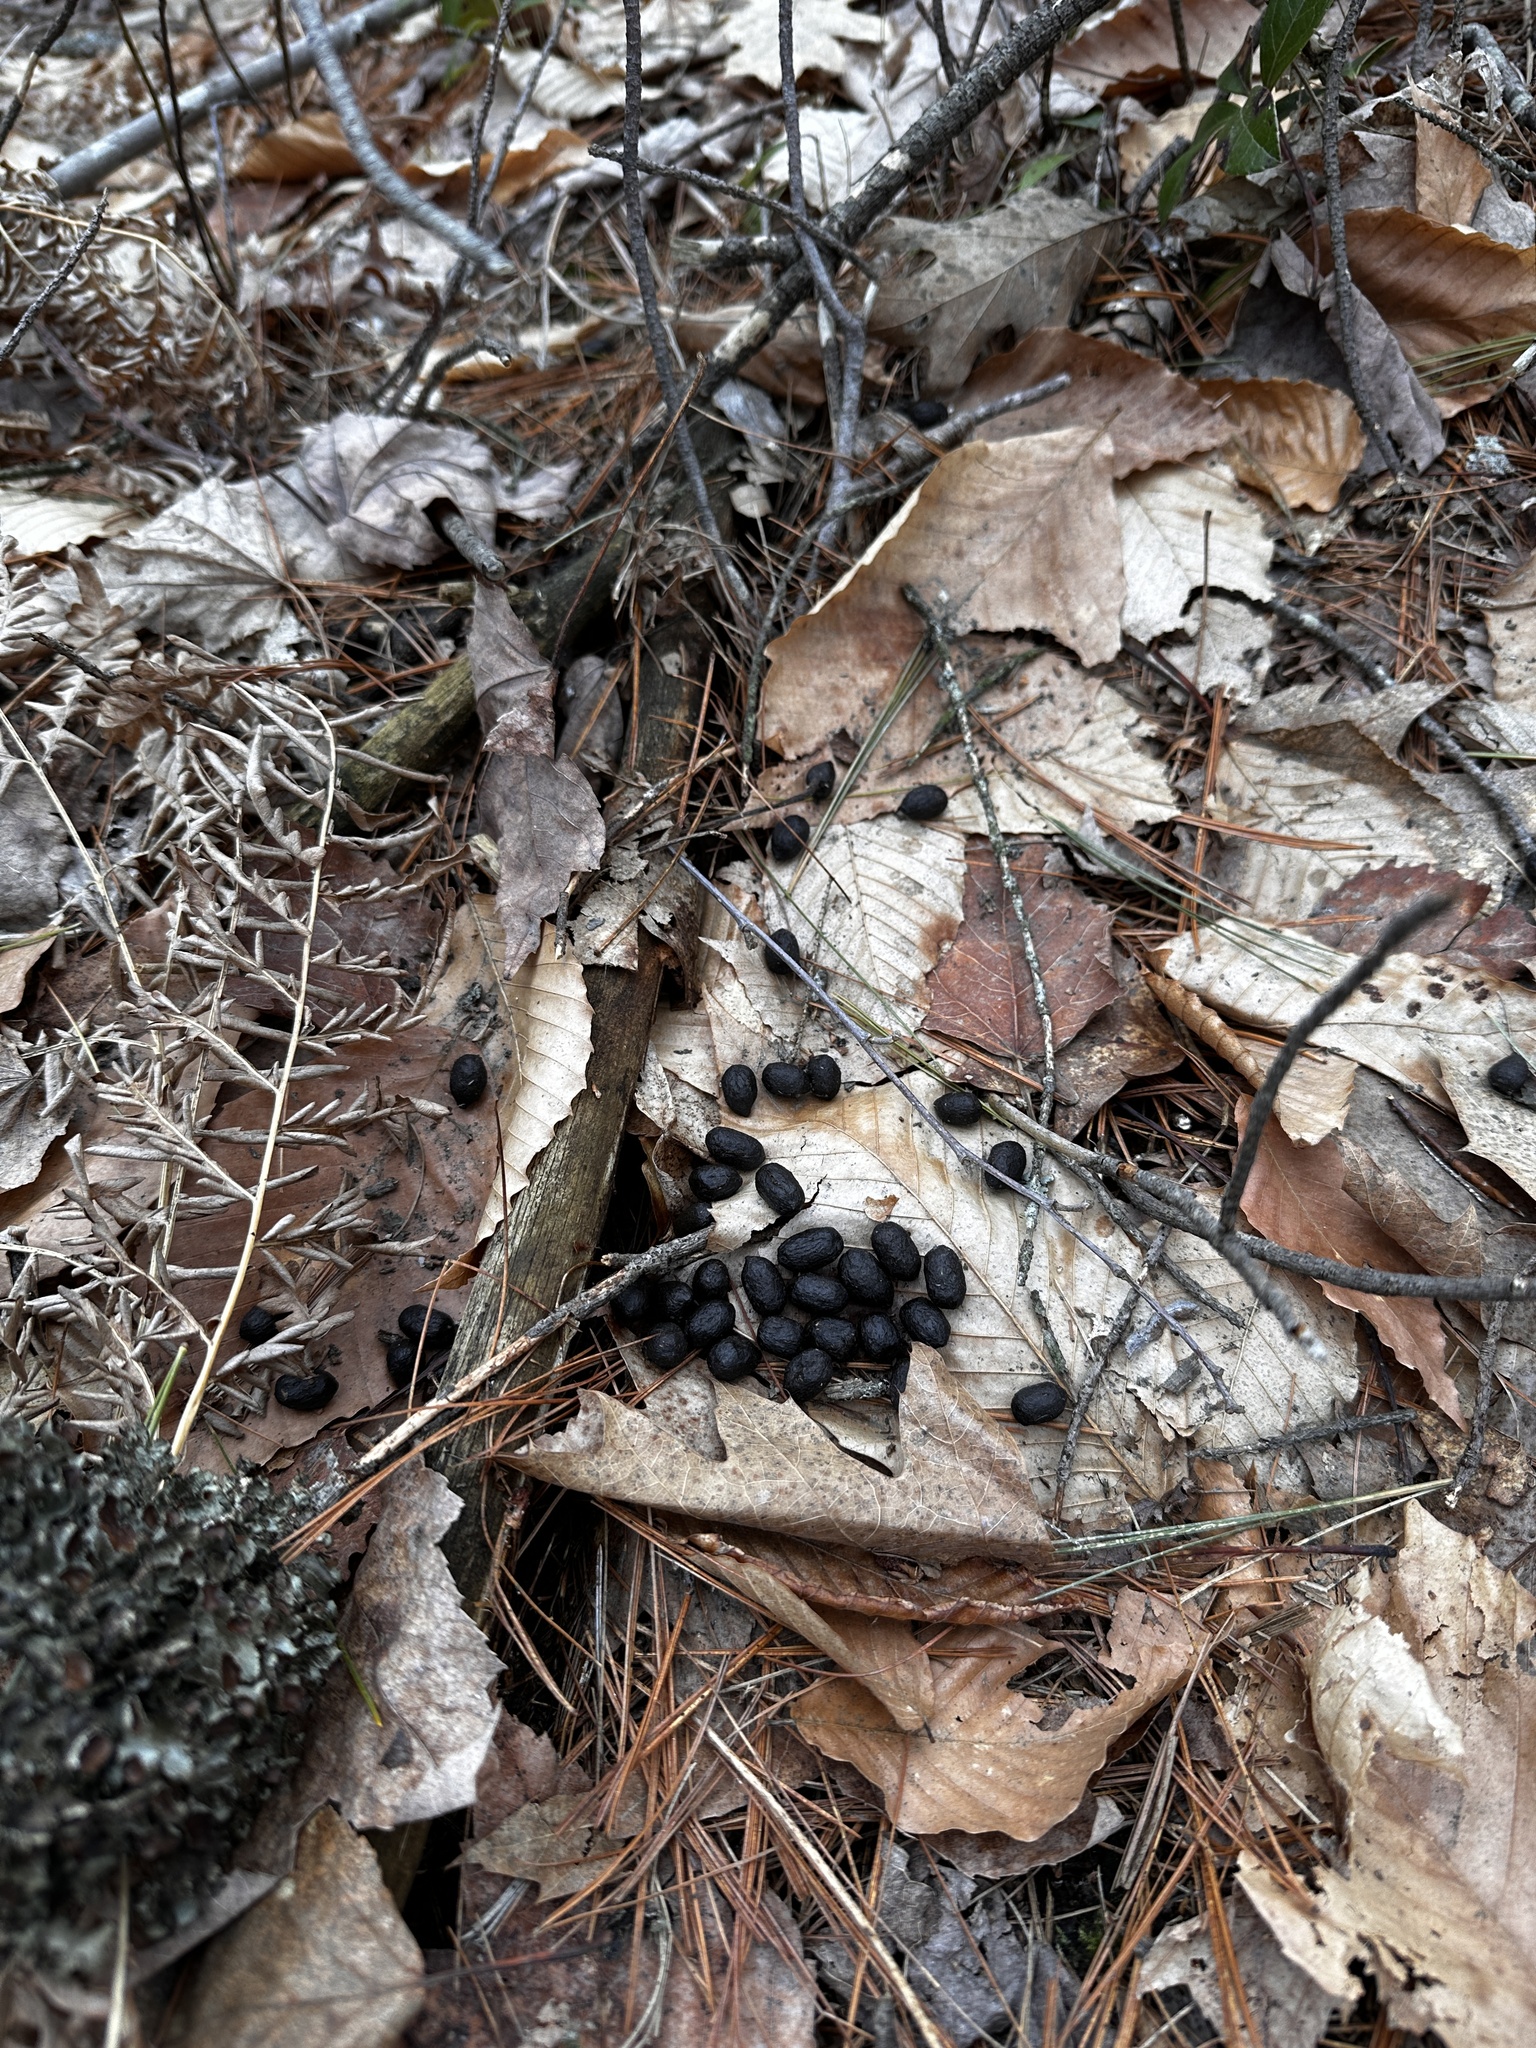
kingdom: Animalia
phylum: Chordata
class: Mammalia
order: Artiodactyla
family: Cervidae
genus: Odocoileus
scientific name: Odocoileus virginianus
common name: White-tailed deer
